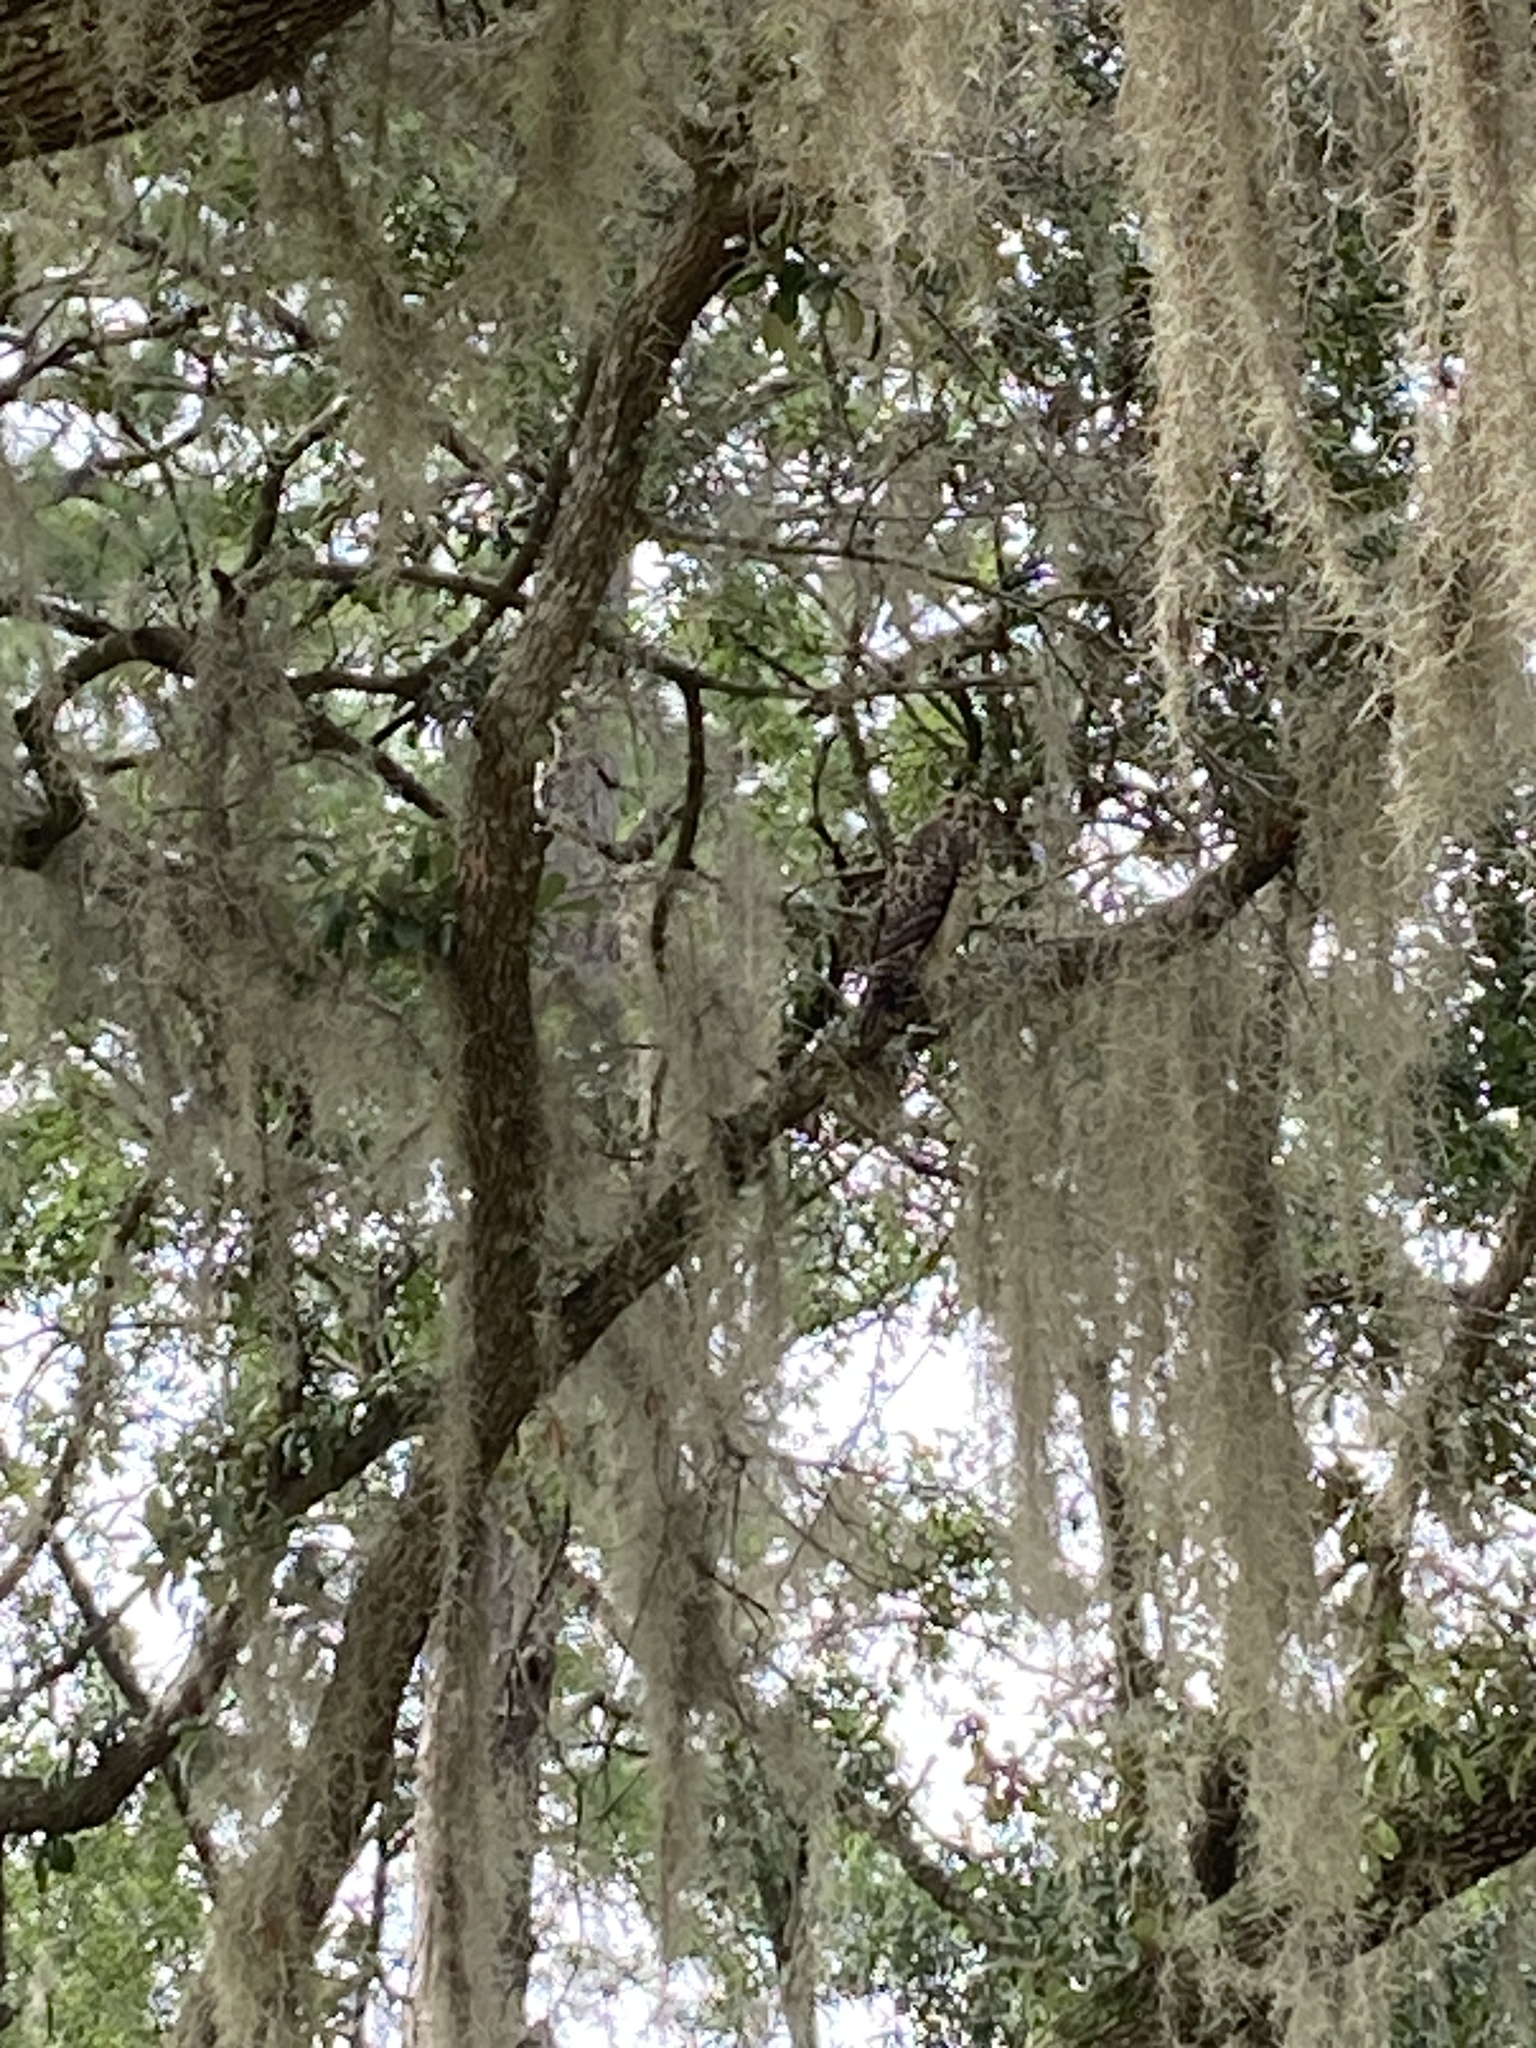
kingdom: Animalia
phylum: Chordata
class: Aves
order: Accipitriformes
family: Accipitridae
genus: Buteo
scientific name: Buteo lineatus
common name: Red-shouldered hawk
